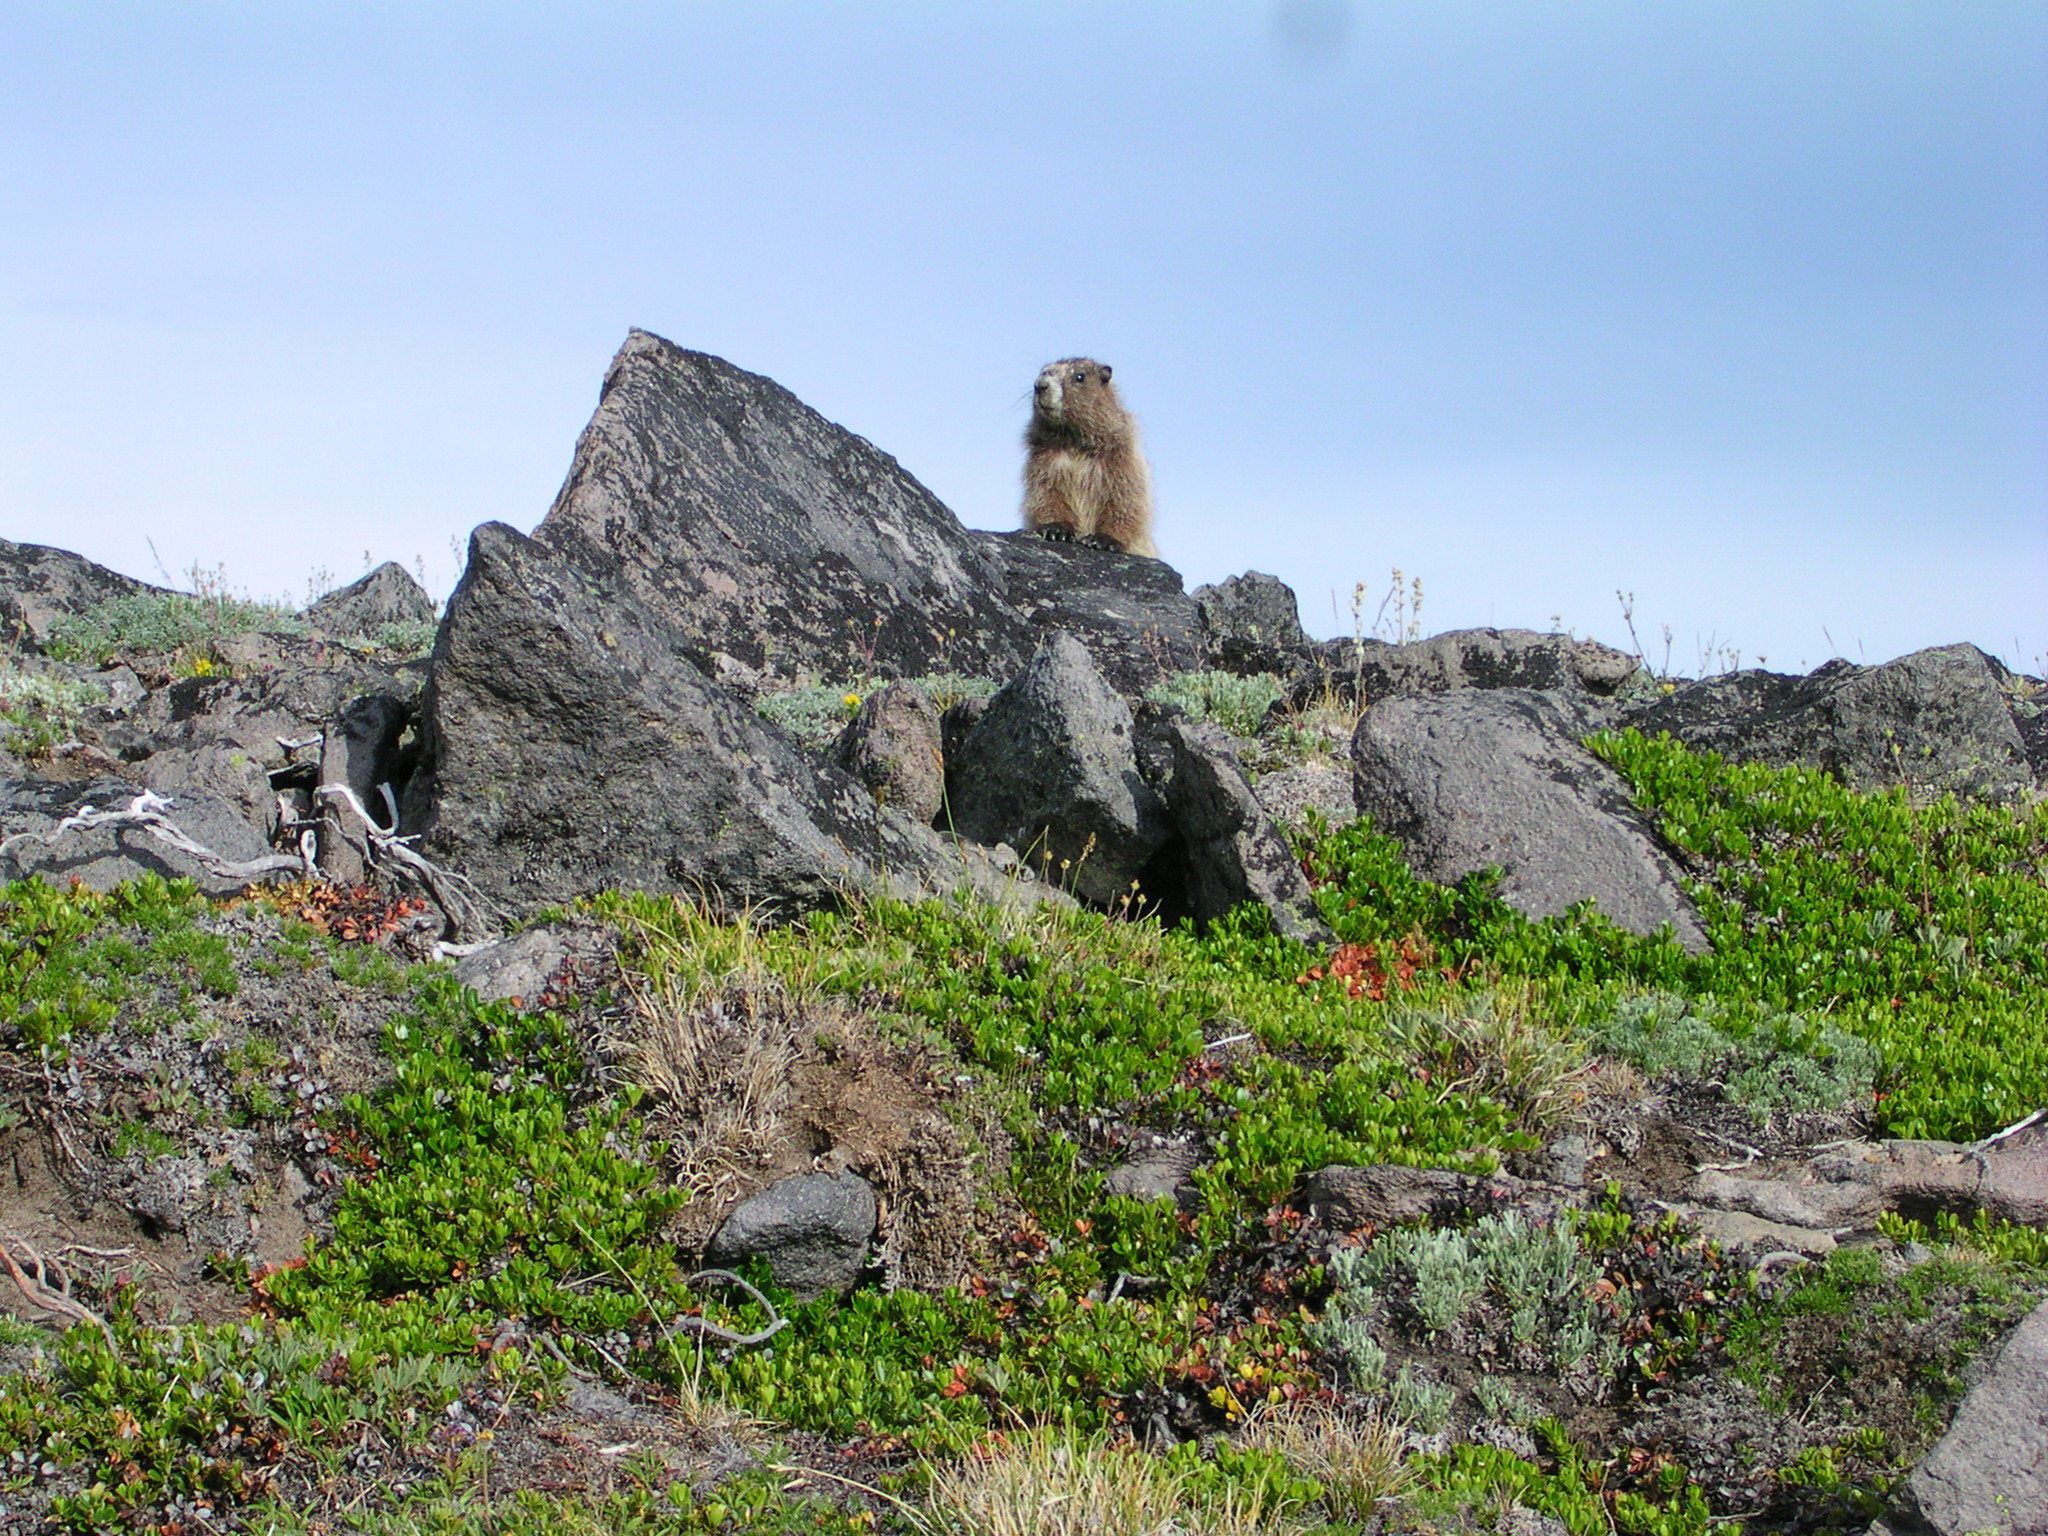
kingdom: Animalia
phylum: Chordata
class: Mammalia
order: Rodentia
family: Sciuridae
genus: Marmota
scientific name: Marmota caligata
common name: Hoary marmot
